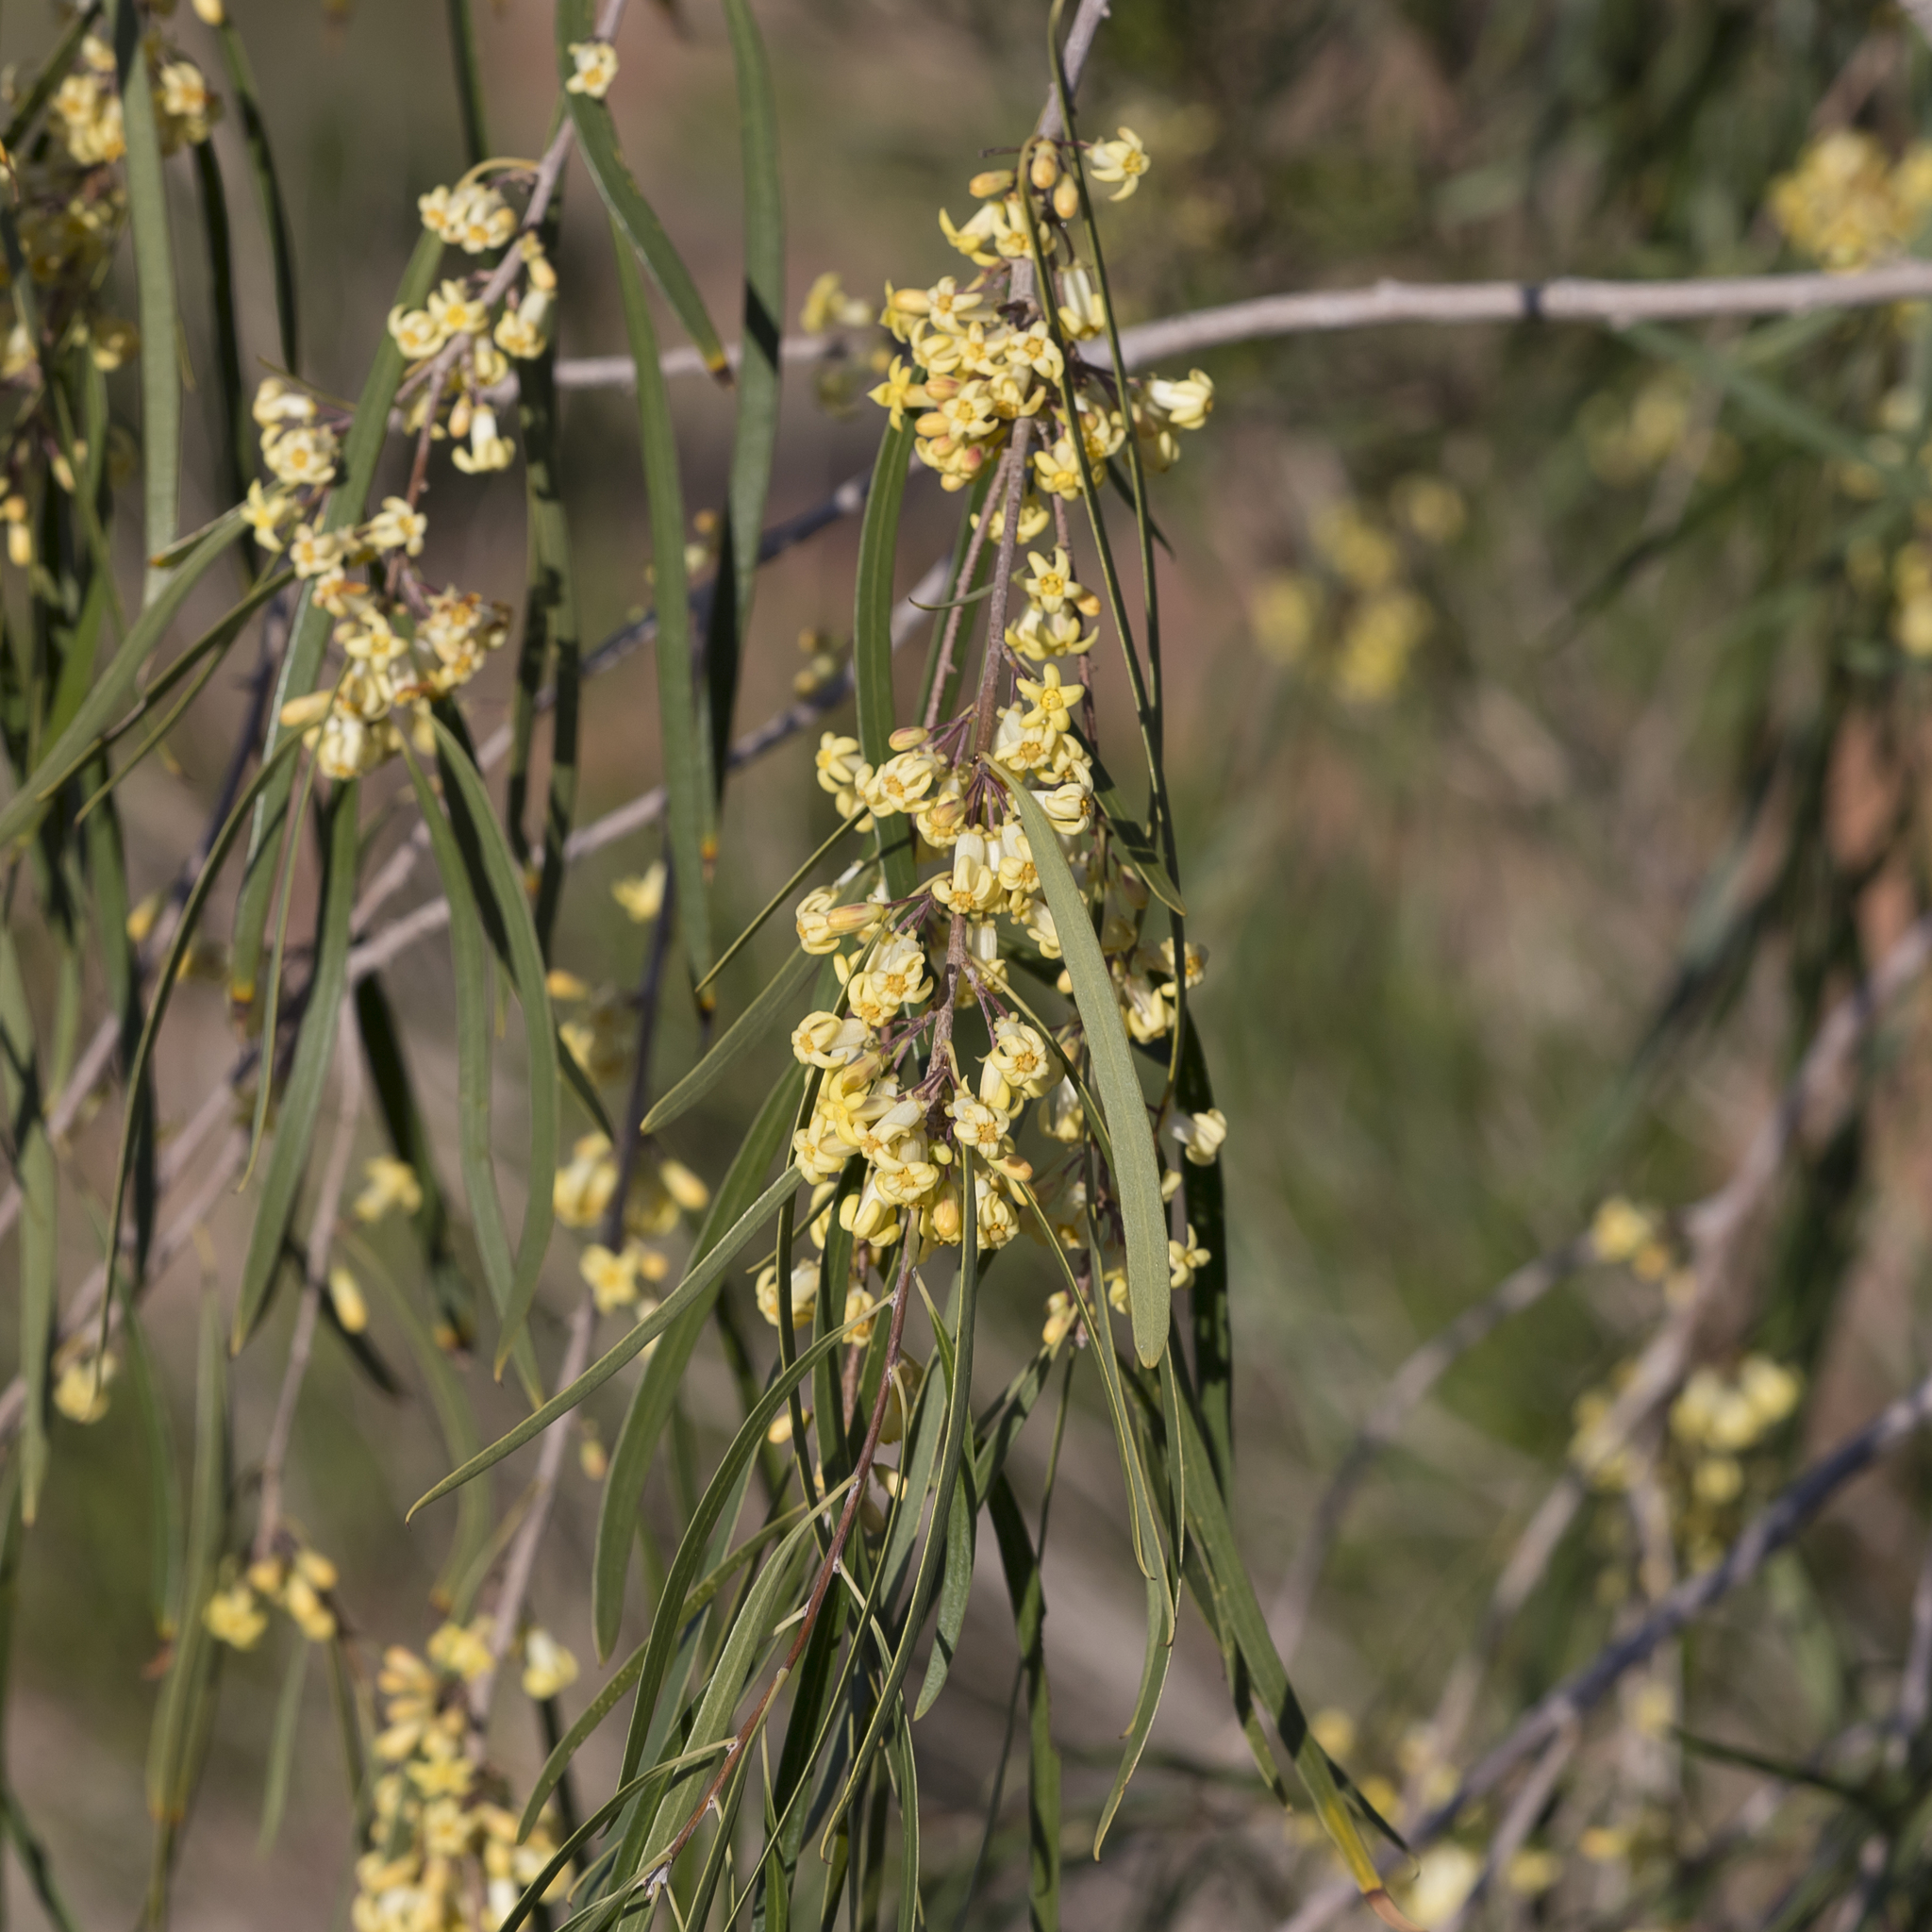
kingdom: Plantae
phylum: Tracheophyta
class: Magnoliopsida
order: Apiales
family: Pittosporaceae
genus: Pittosporum
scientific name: Pittosporum angustifolium
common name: Weeping pittosporum
